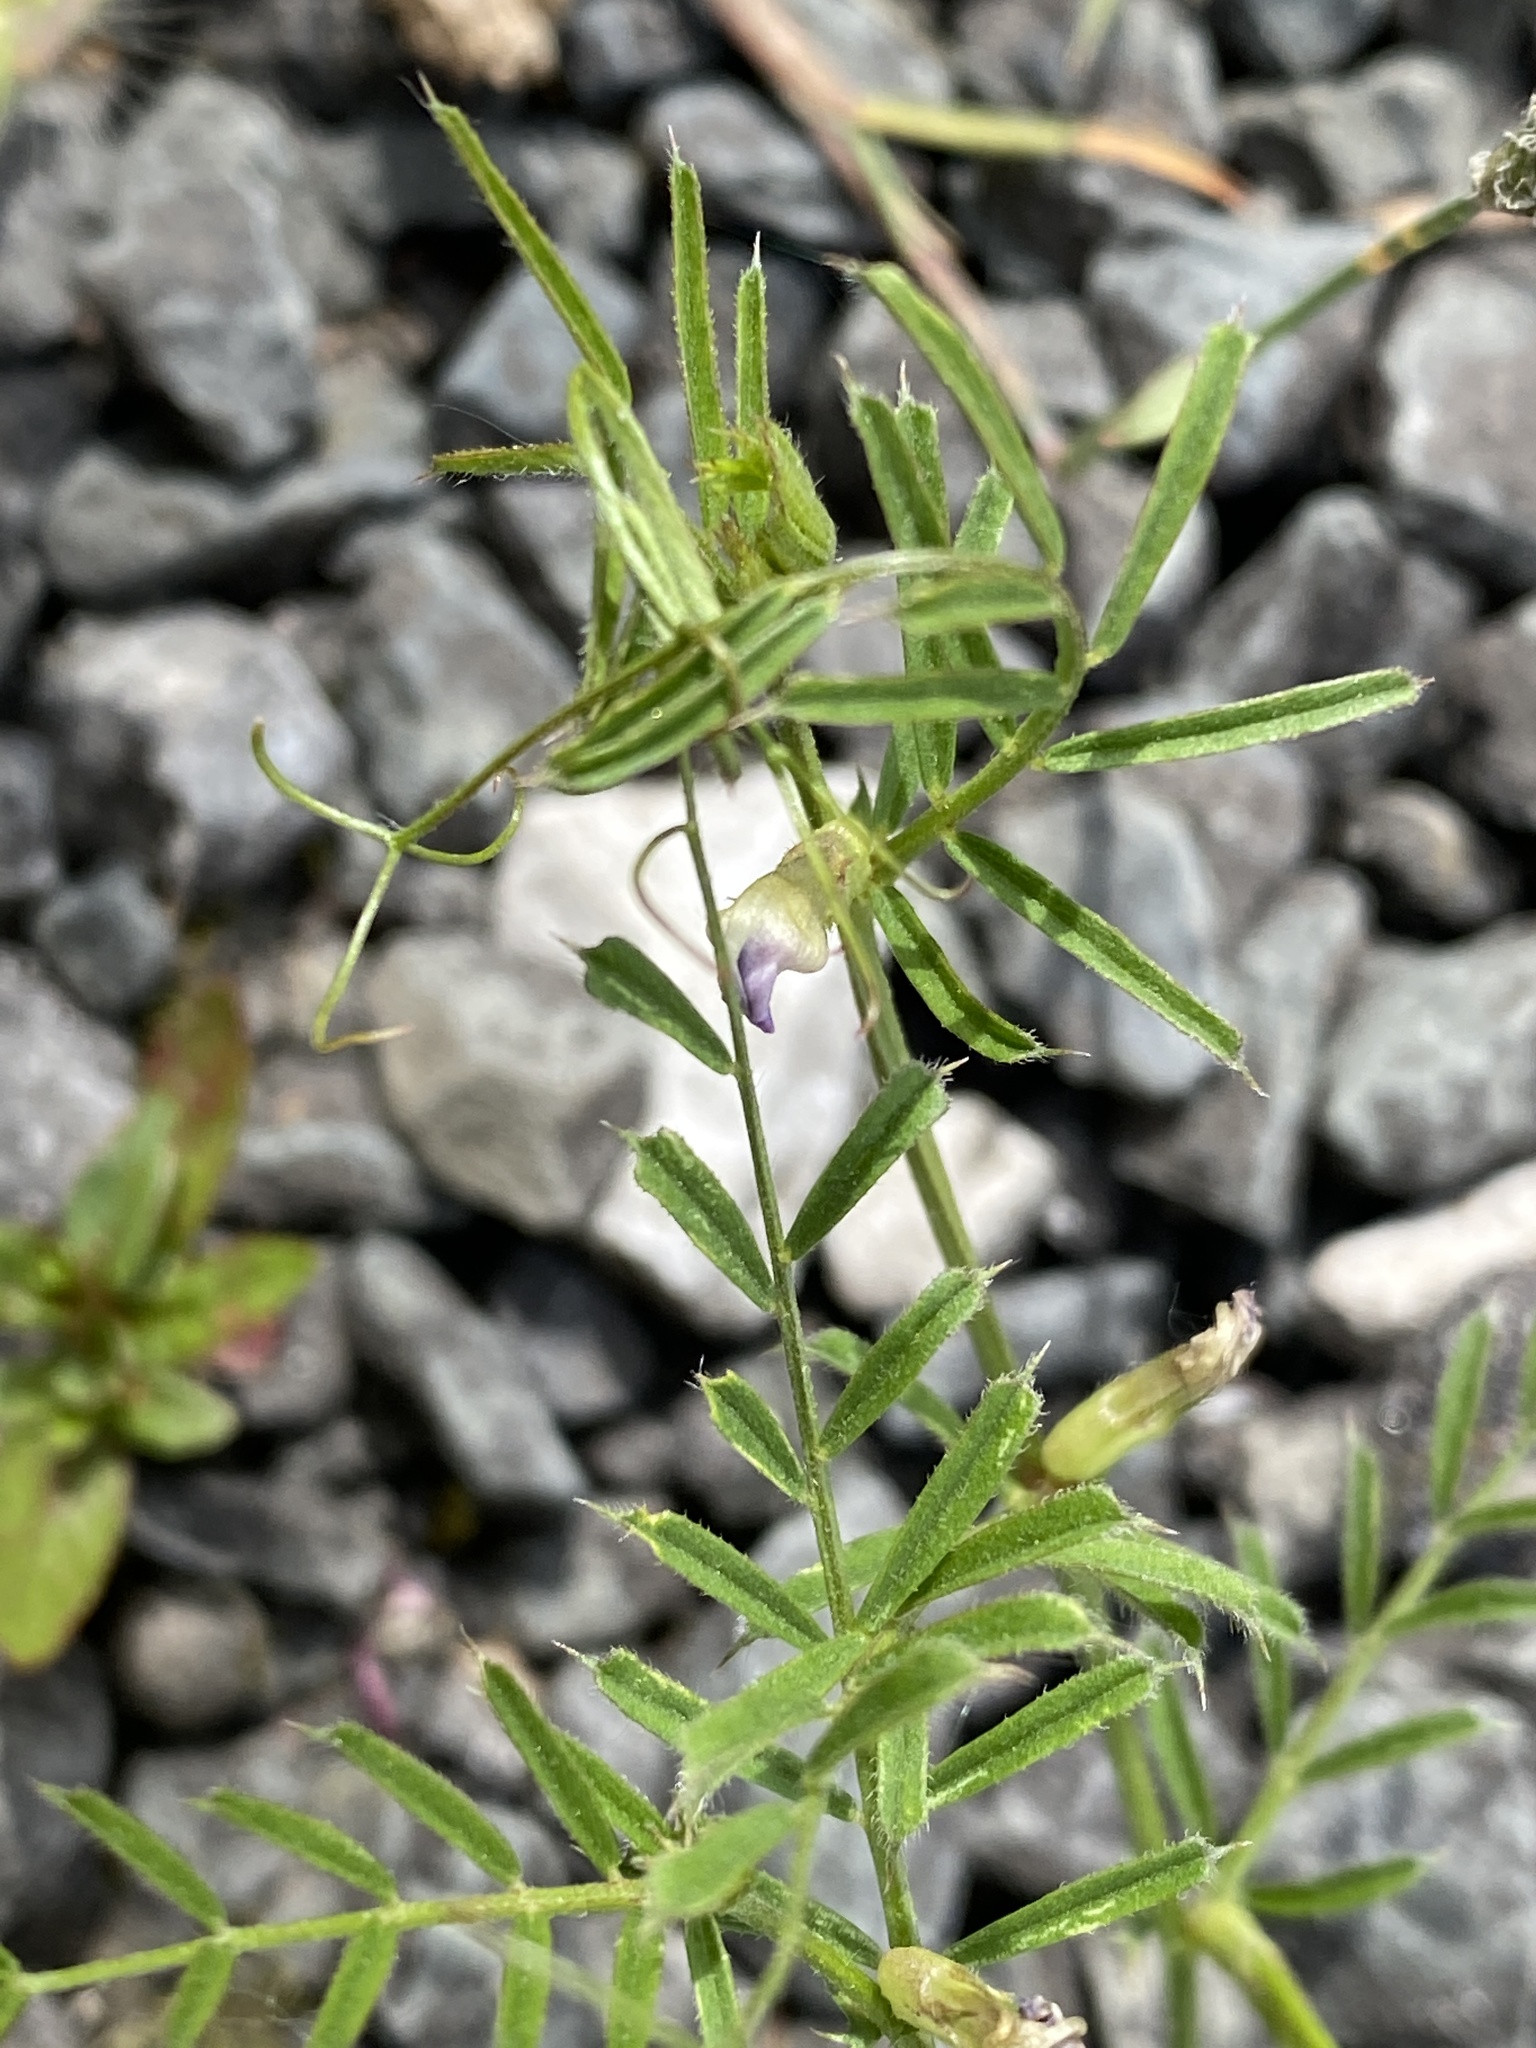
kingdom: Plantae
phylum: Tracheophyta
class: Magnoliopsida
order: Fabales
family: Fabaceae
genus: Vicia
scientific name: Vicia sativa
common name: Garden vetch
